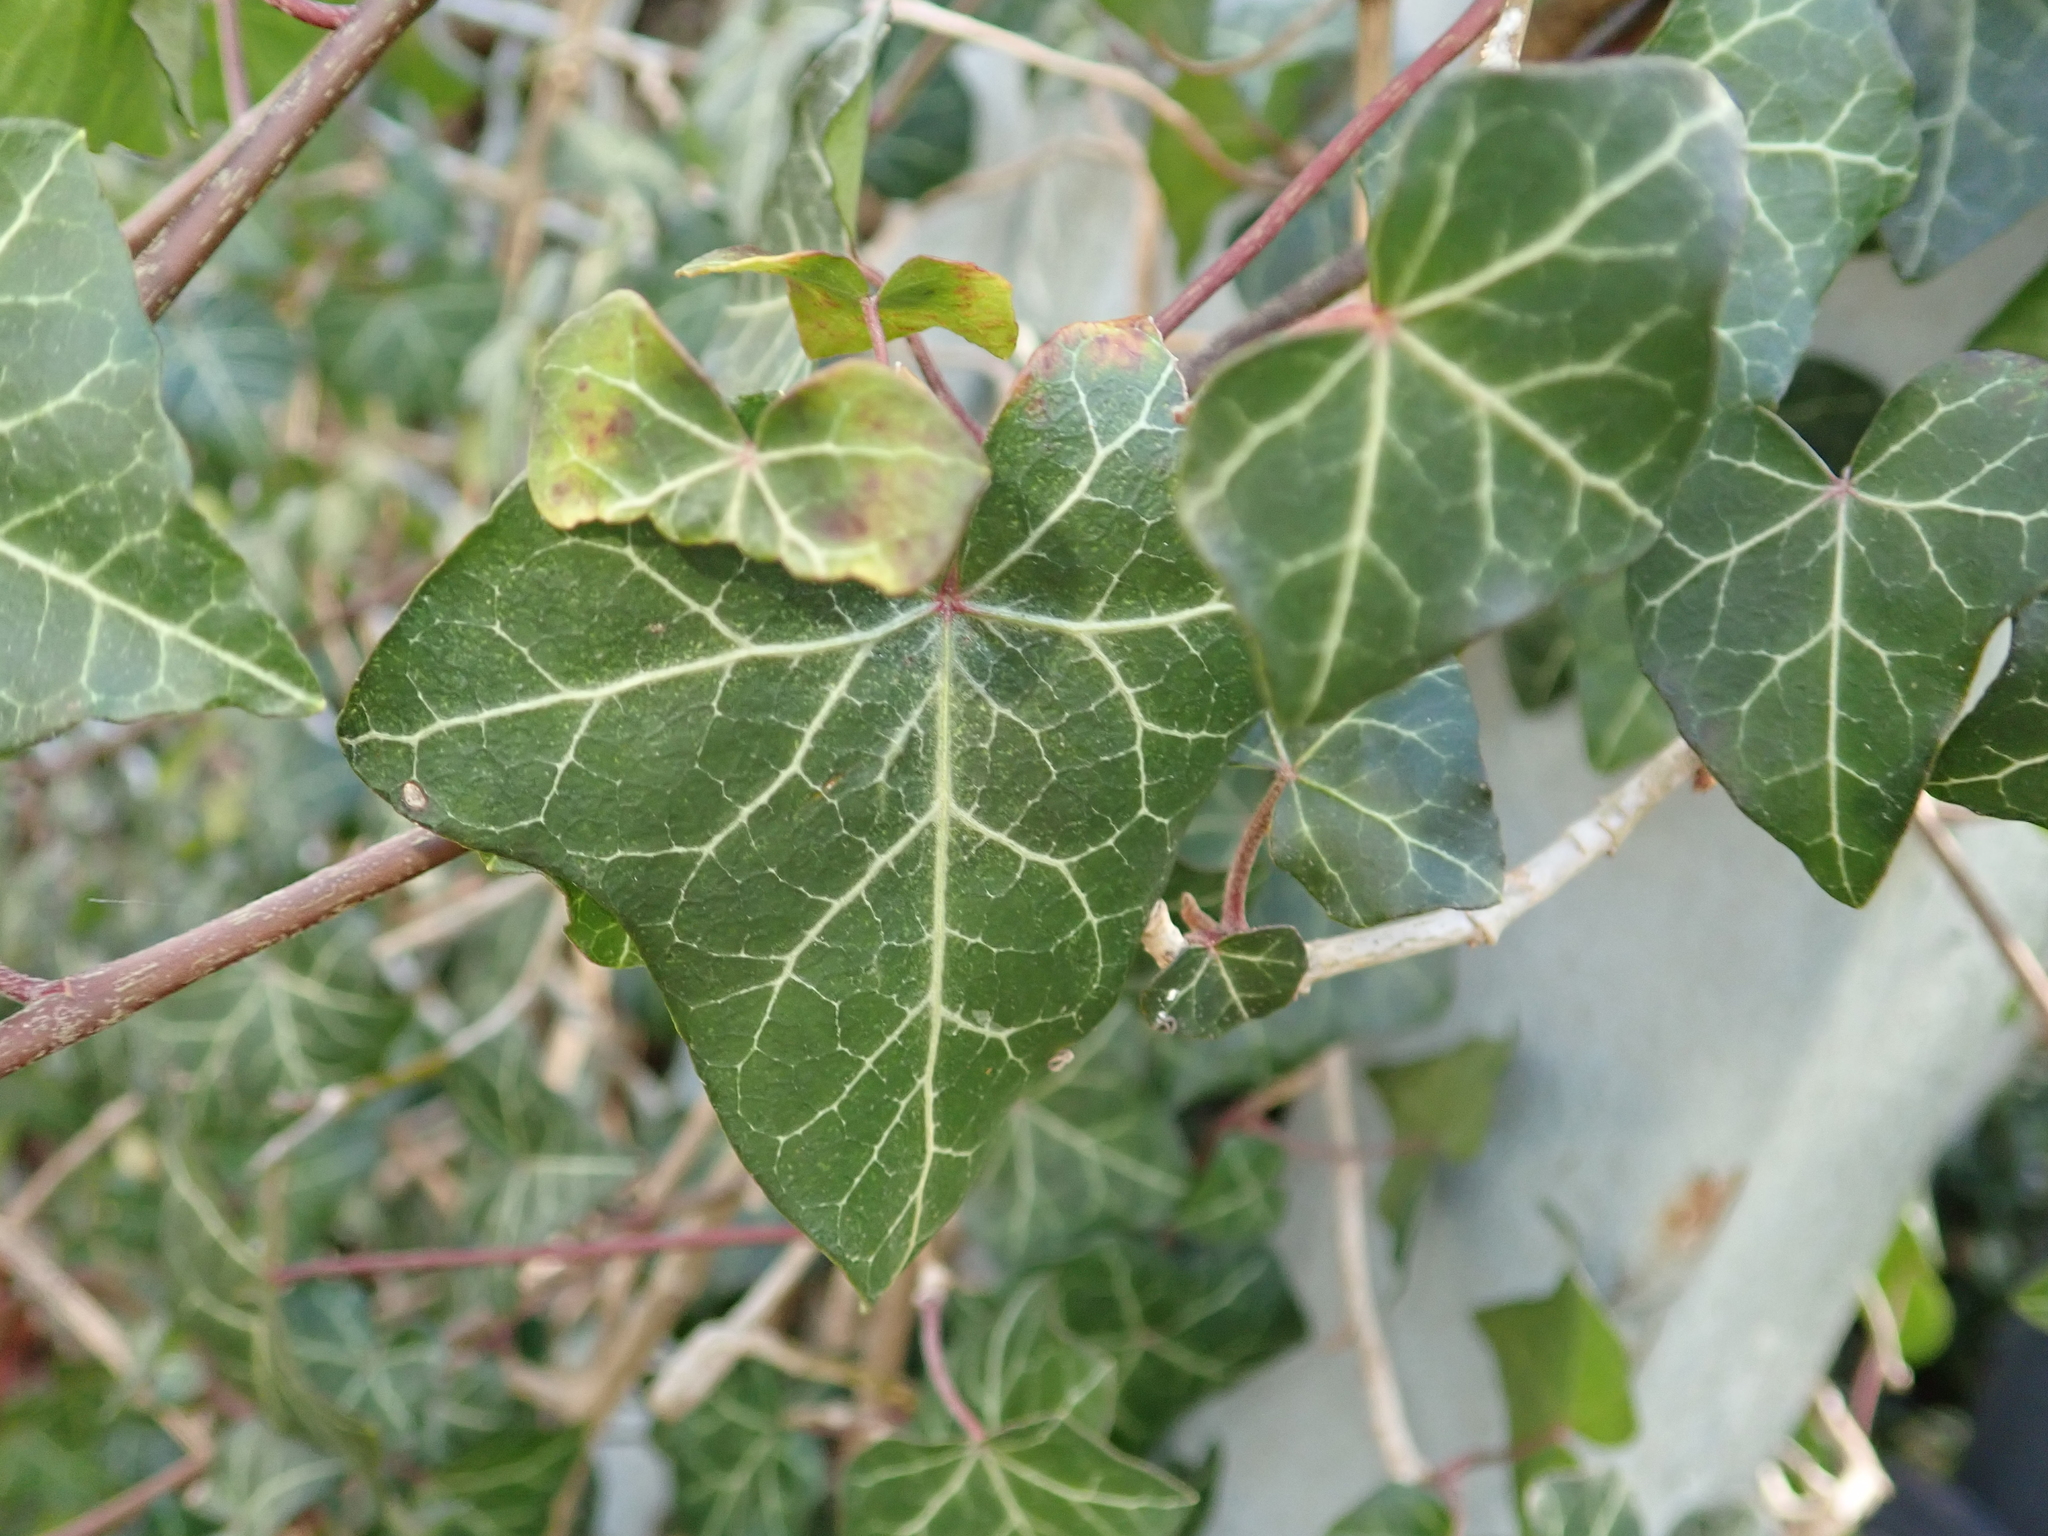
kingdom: Plantae
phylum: Tracheophyta
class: Magnoliopsida
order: Apiales
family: Araliaceae
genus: Hedera
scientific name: Hedera helix
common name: Ivy
